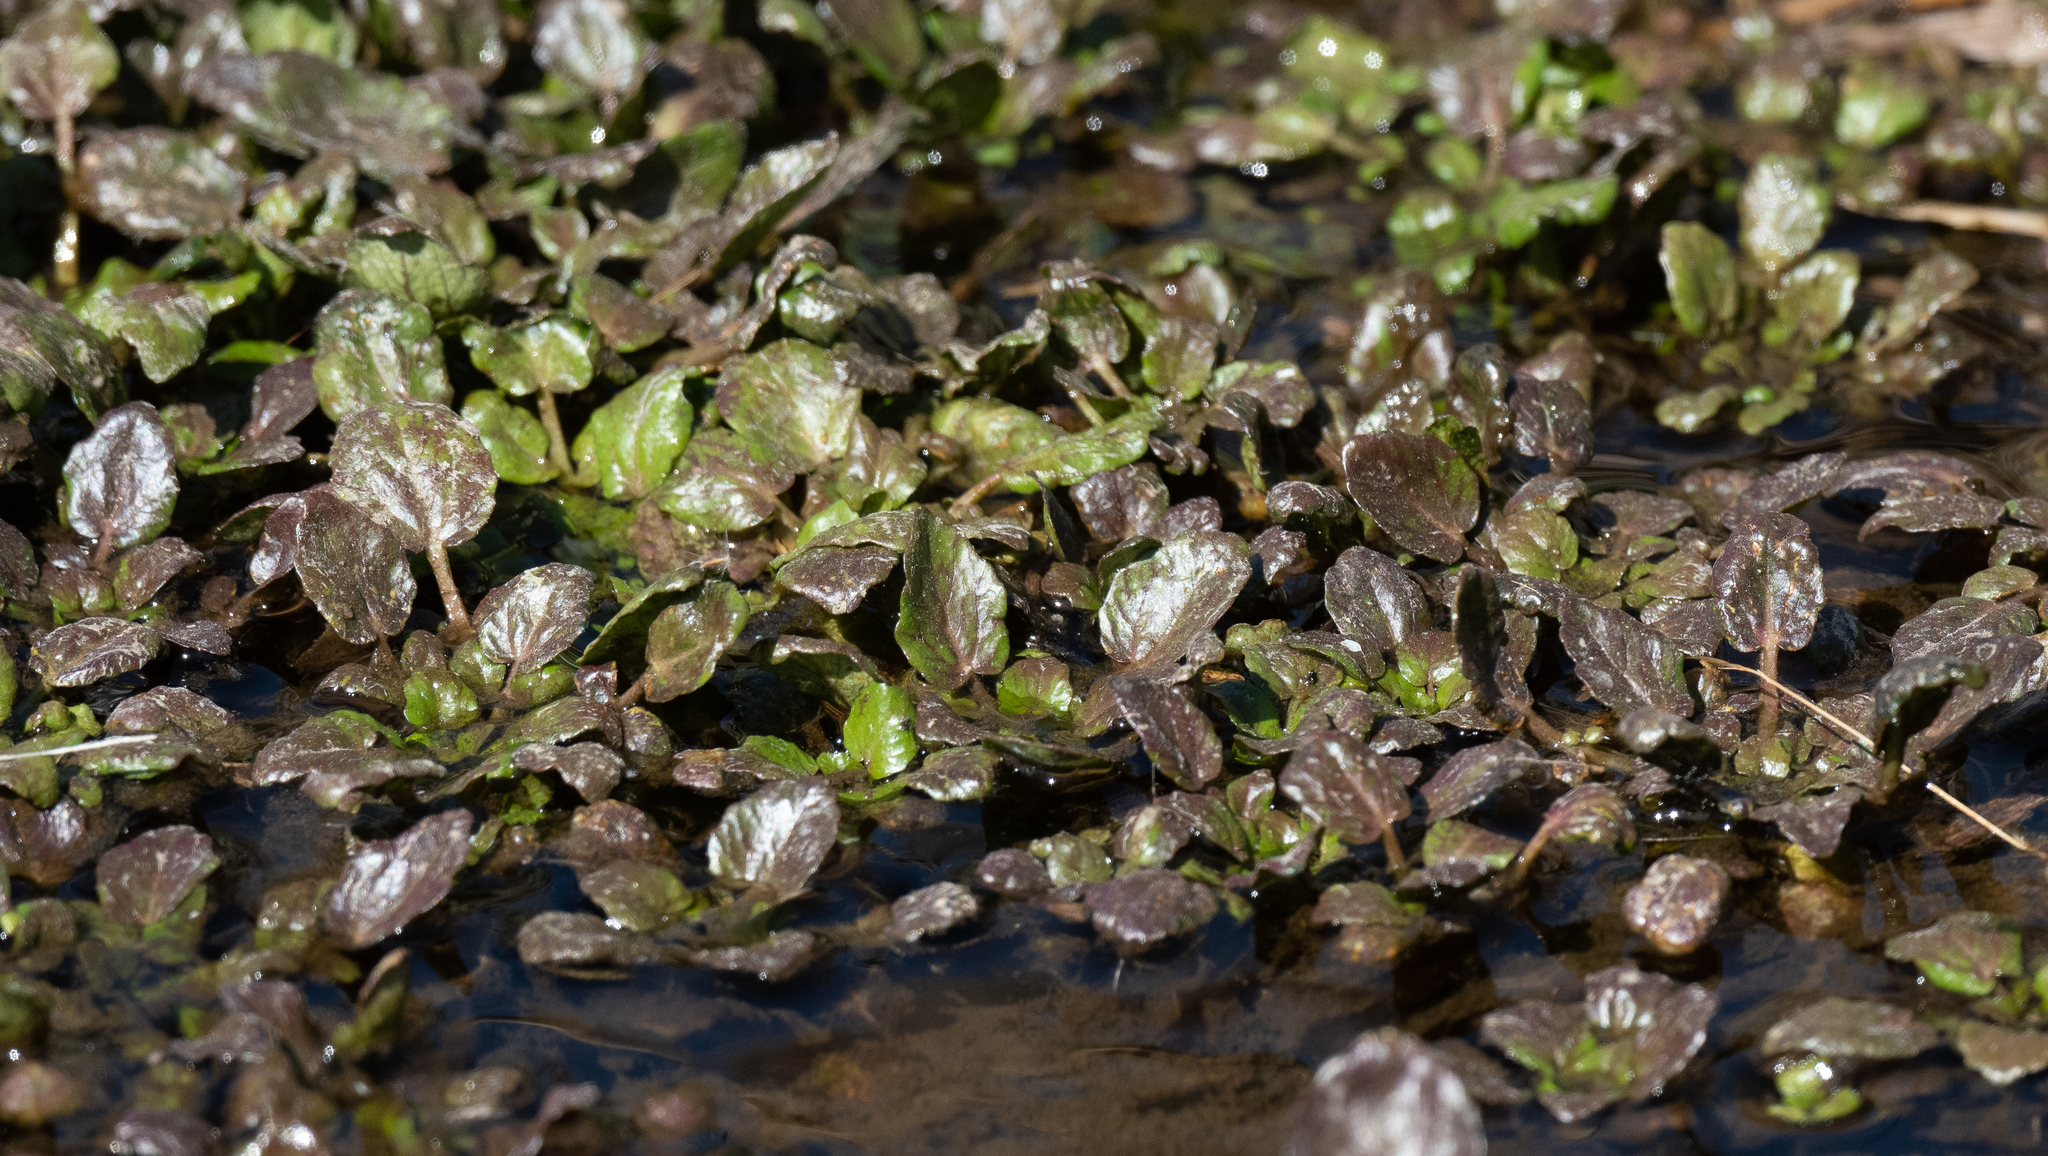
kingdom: Plantae
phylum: Tracheophyta
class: Magnoliopsida
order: Brassicales
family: Brassicaceae
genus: Nasturtium
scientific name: Nasturtium officinale
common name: Watercress
